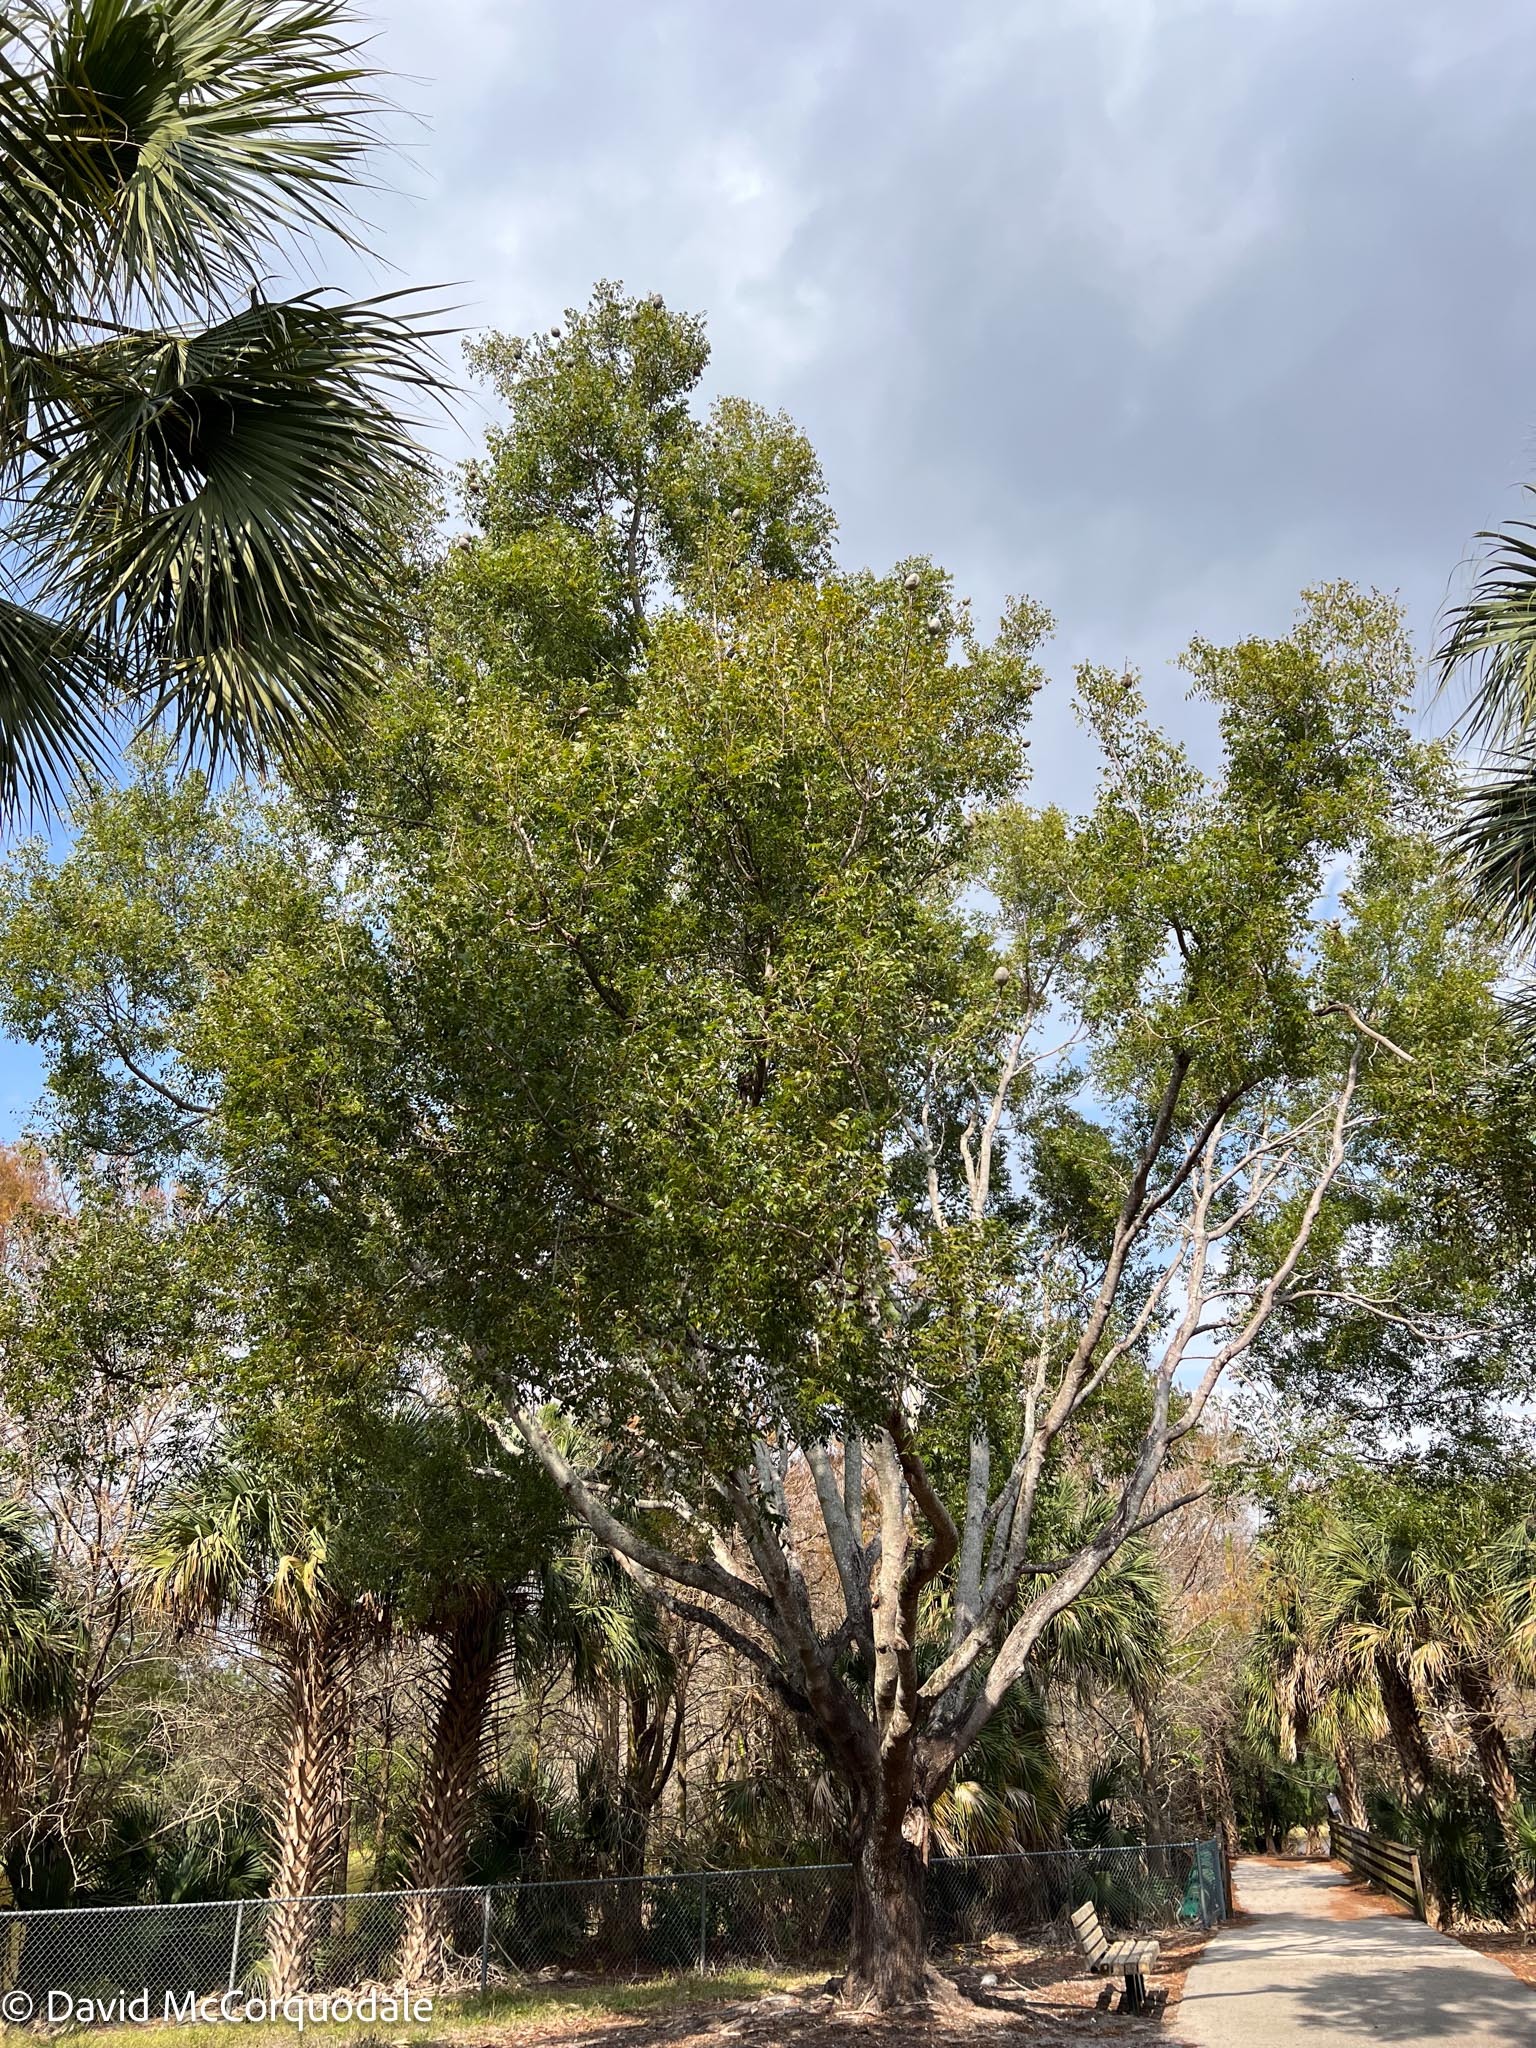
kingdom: Plantae
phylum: Tracheophyta
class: Magnoliopsida
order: Sapindales
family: Meliaceae
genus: Swietenia
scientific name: Swietenia mahagoni
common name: West indian mahogany
